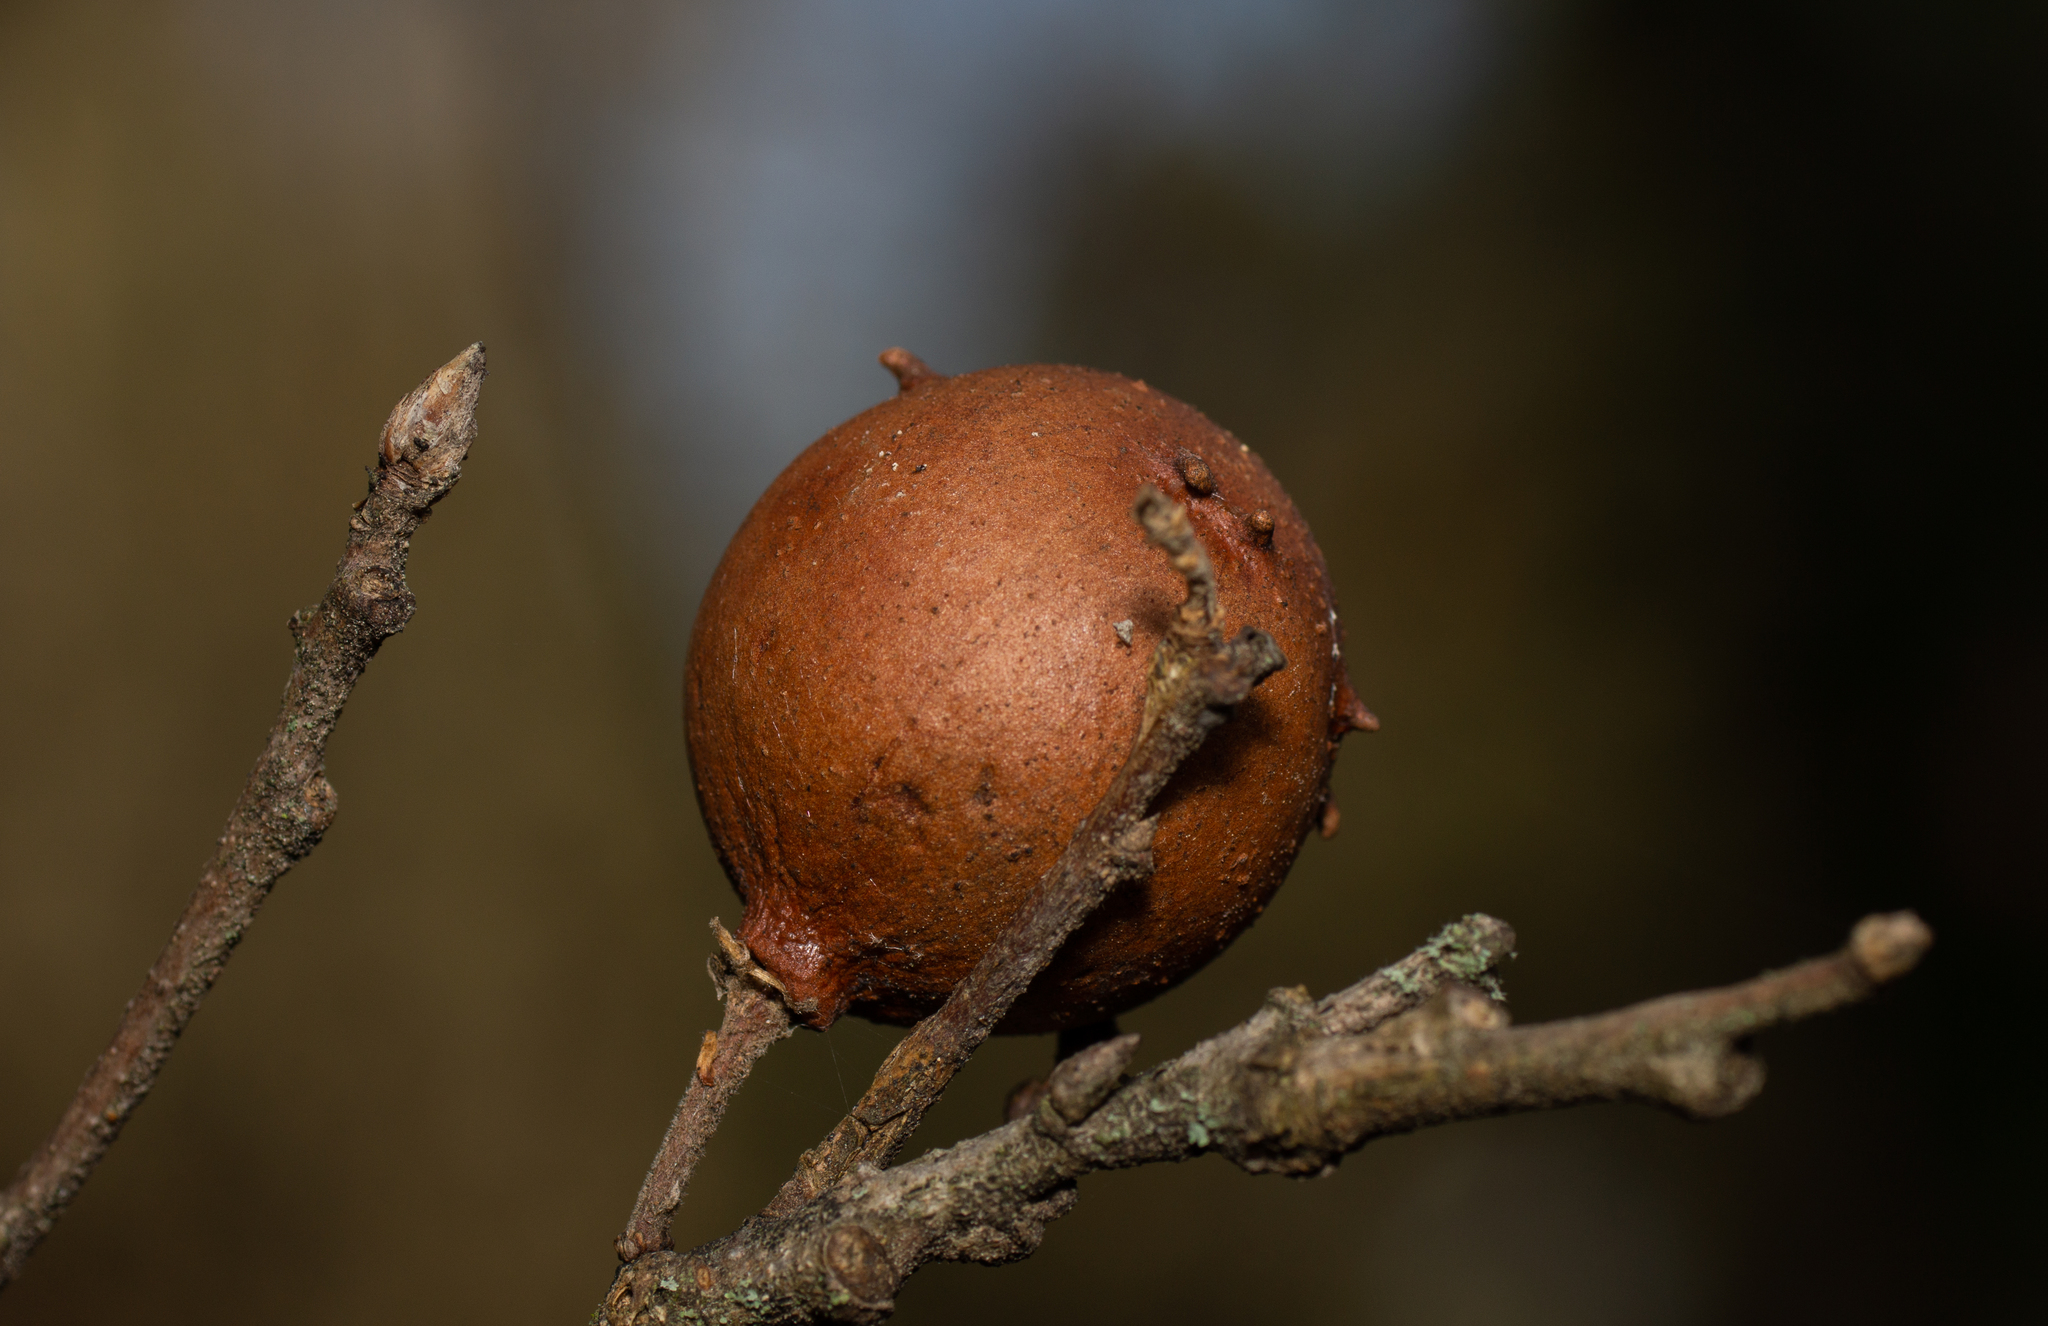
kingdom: Animalia
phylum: Arthropoda
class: Insecta
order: Hymenoptera
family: Cynipidae
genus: Andricus
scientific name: Andricus quercustozae
